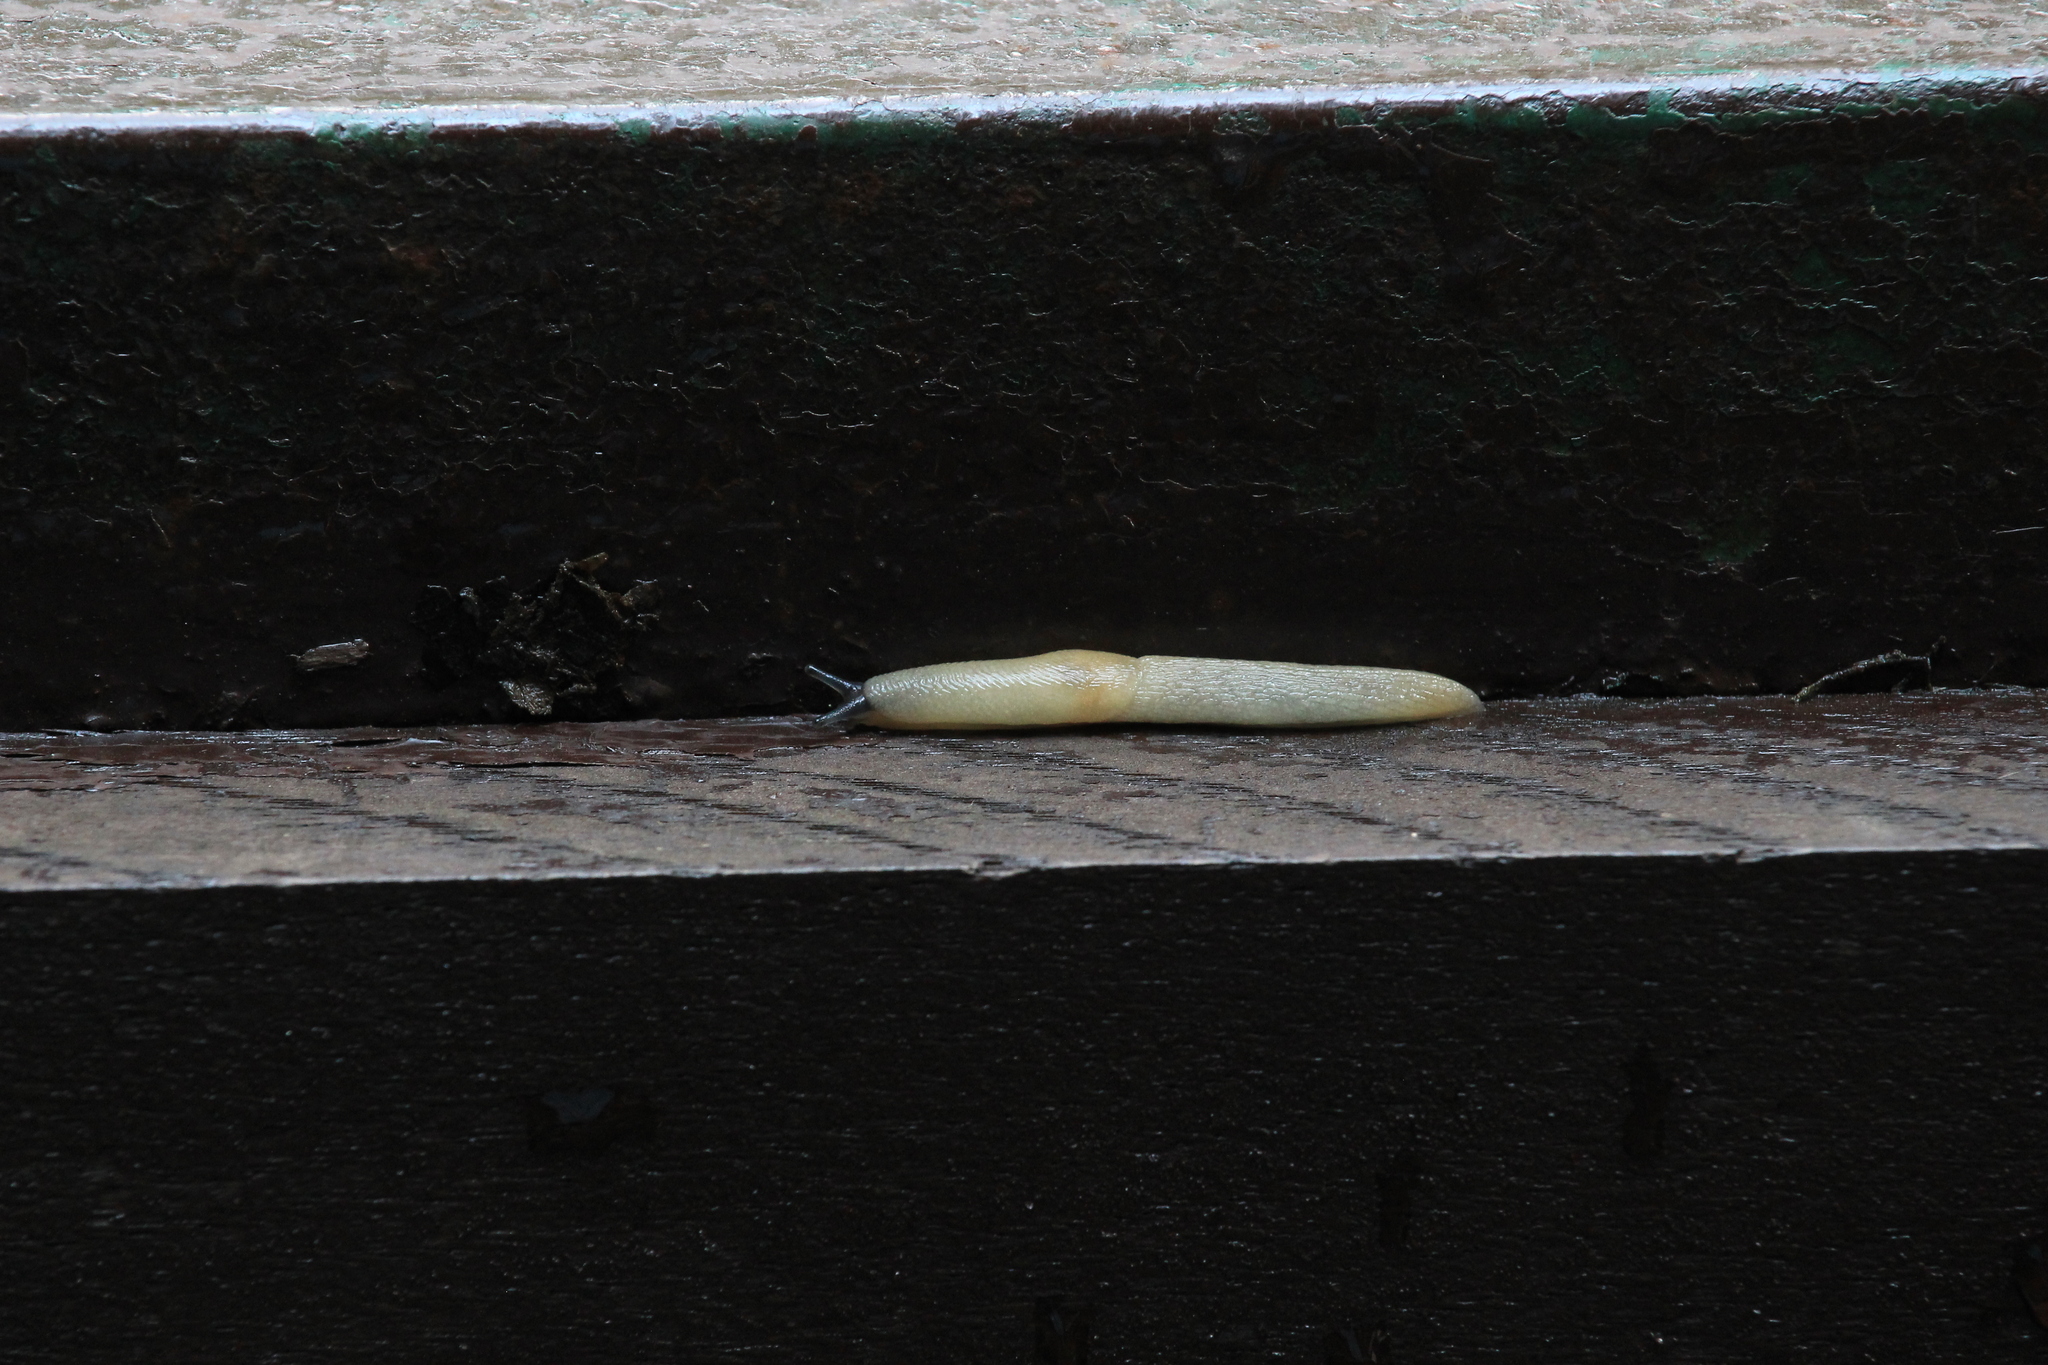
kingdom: Animalia
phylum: Mollusca
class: Gastropoda
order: Stylommatophora
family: Agriolimacidae
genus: Krynickillus
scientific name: Krynickillus melanocephalus
